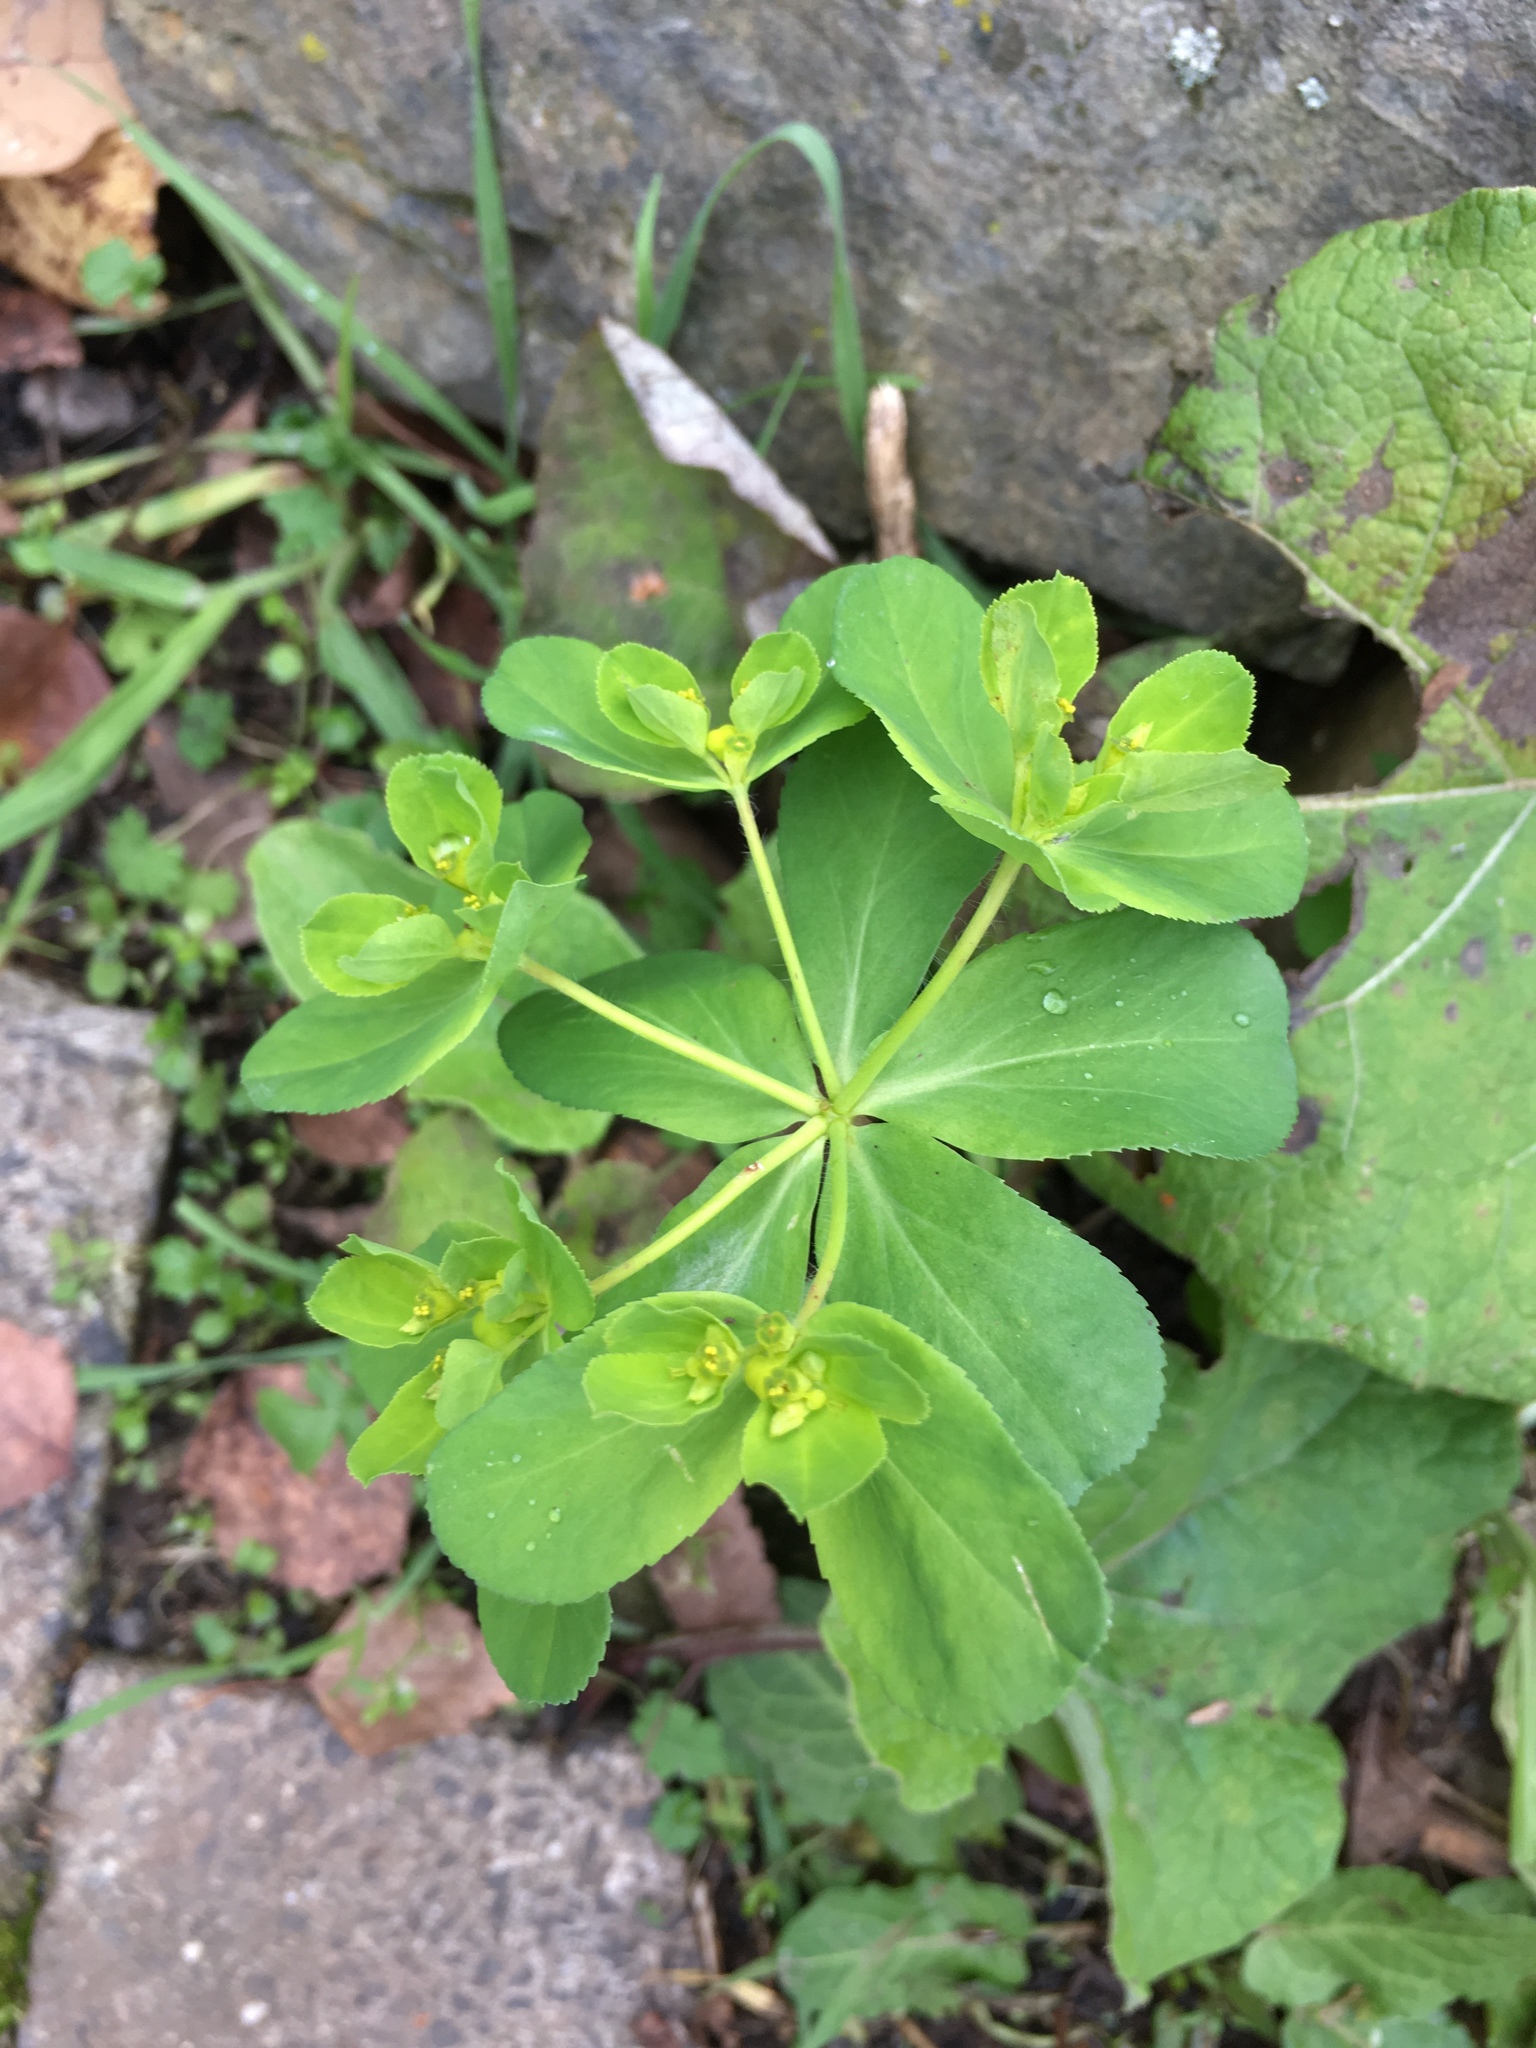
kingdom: Plantae
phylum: Tracheophyta
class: Magnoliopsida
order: Malpighiales
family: Euphorbiaceae
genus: Euphorbia
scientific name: Euphorbia helioscopia
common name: Sun spurge
